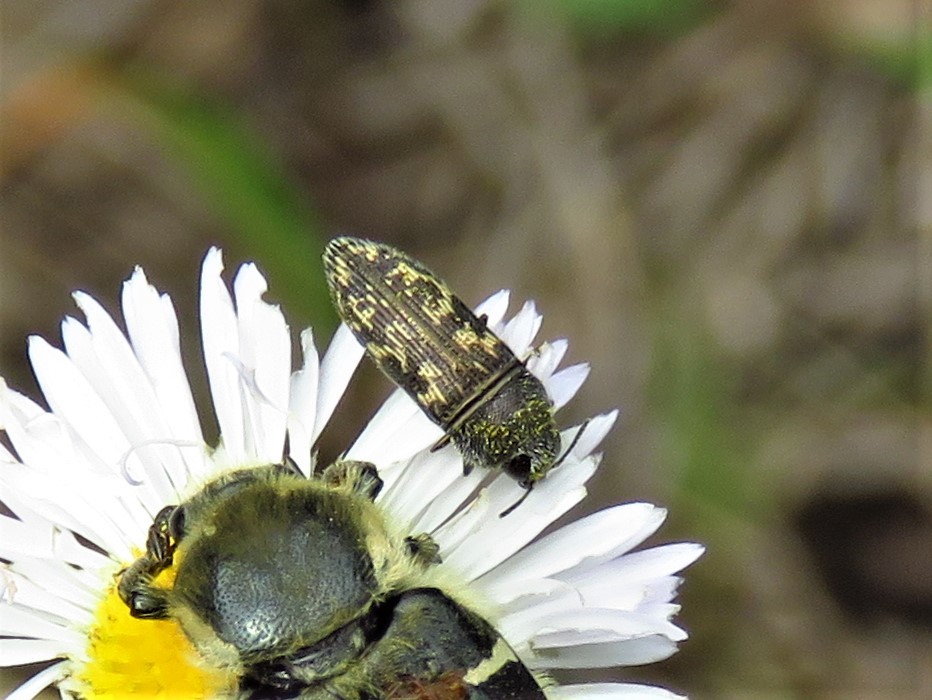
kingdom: Animalia
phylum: Arthropoda
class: Insecta
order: Coleoptera
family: Buprestidae
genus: Acmaeodera
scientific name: Acmaeodera neglecta
